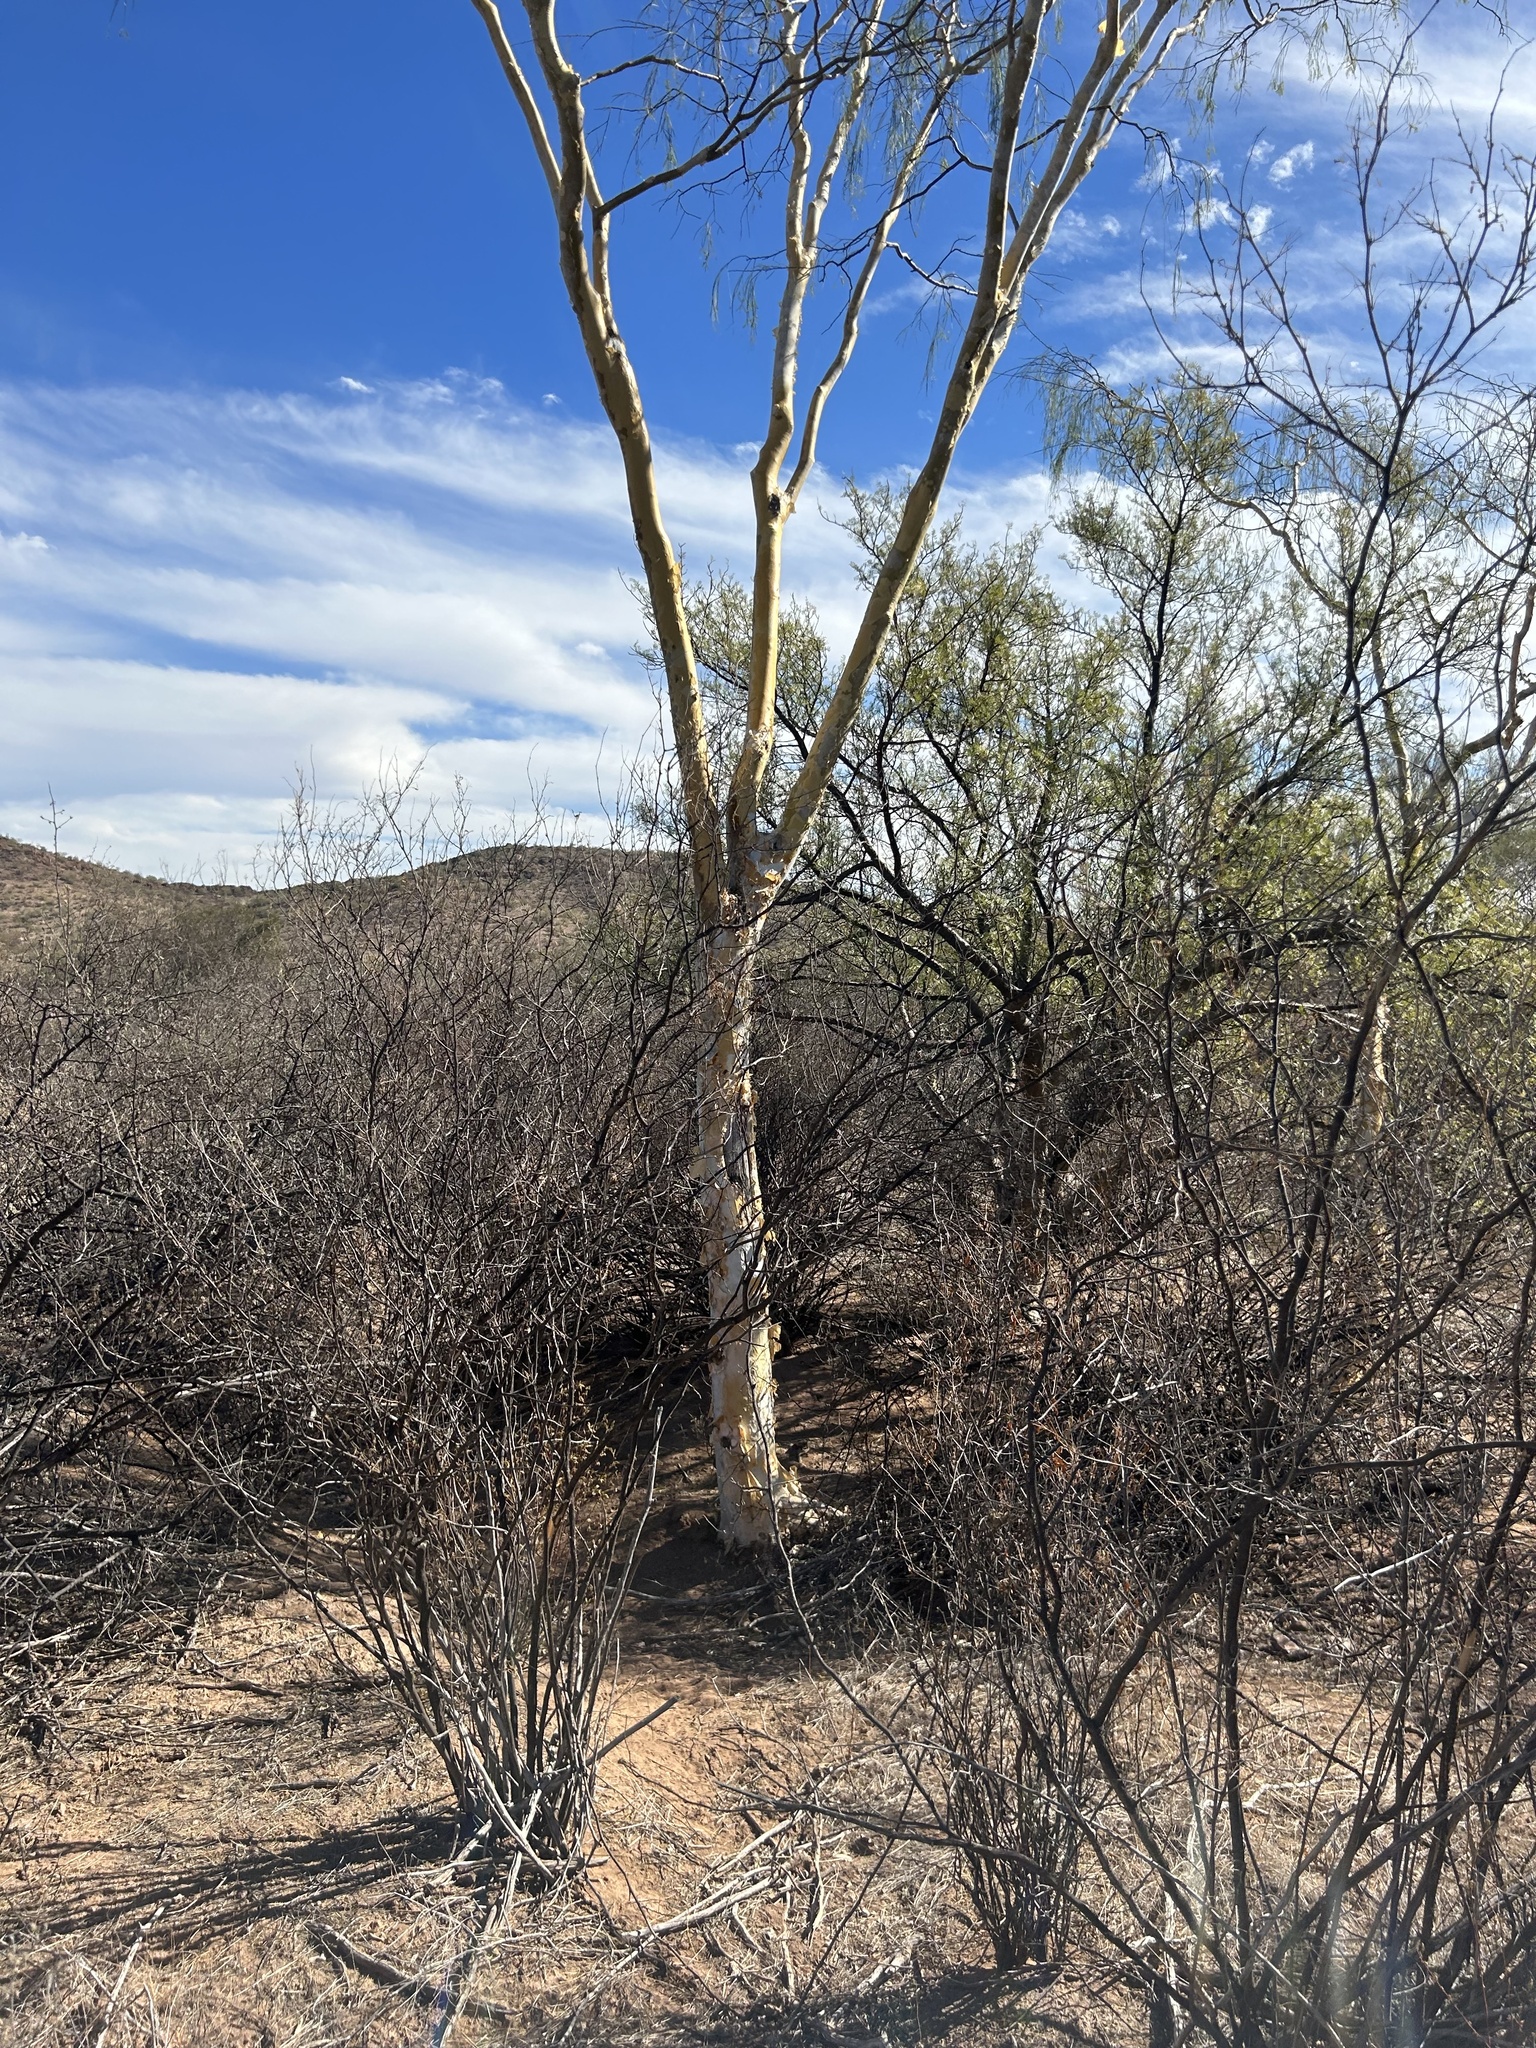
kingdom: Plantae
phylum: Tracheophyta
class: Magnoliopsida
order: Fabales
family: Fabaceae
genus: Mariosousa
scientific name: Mariosousa heterophylla
